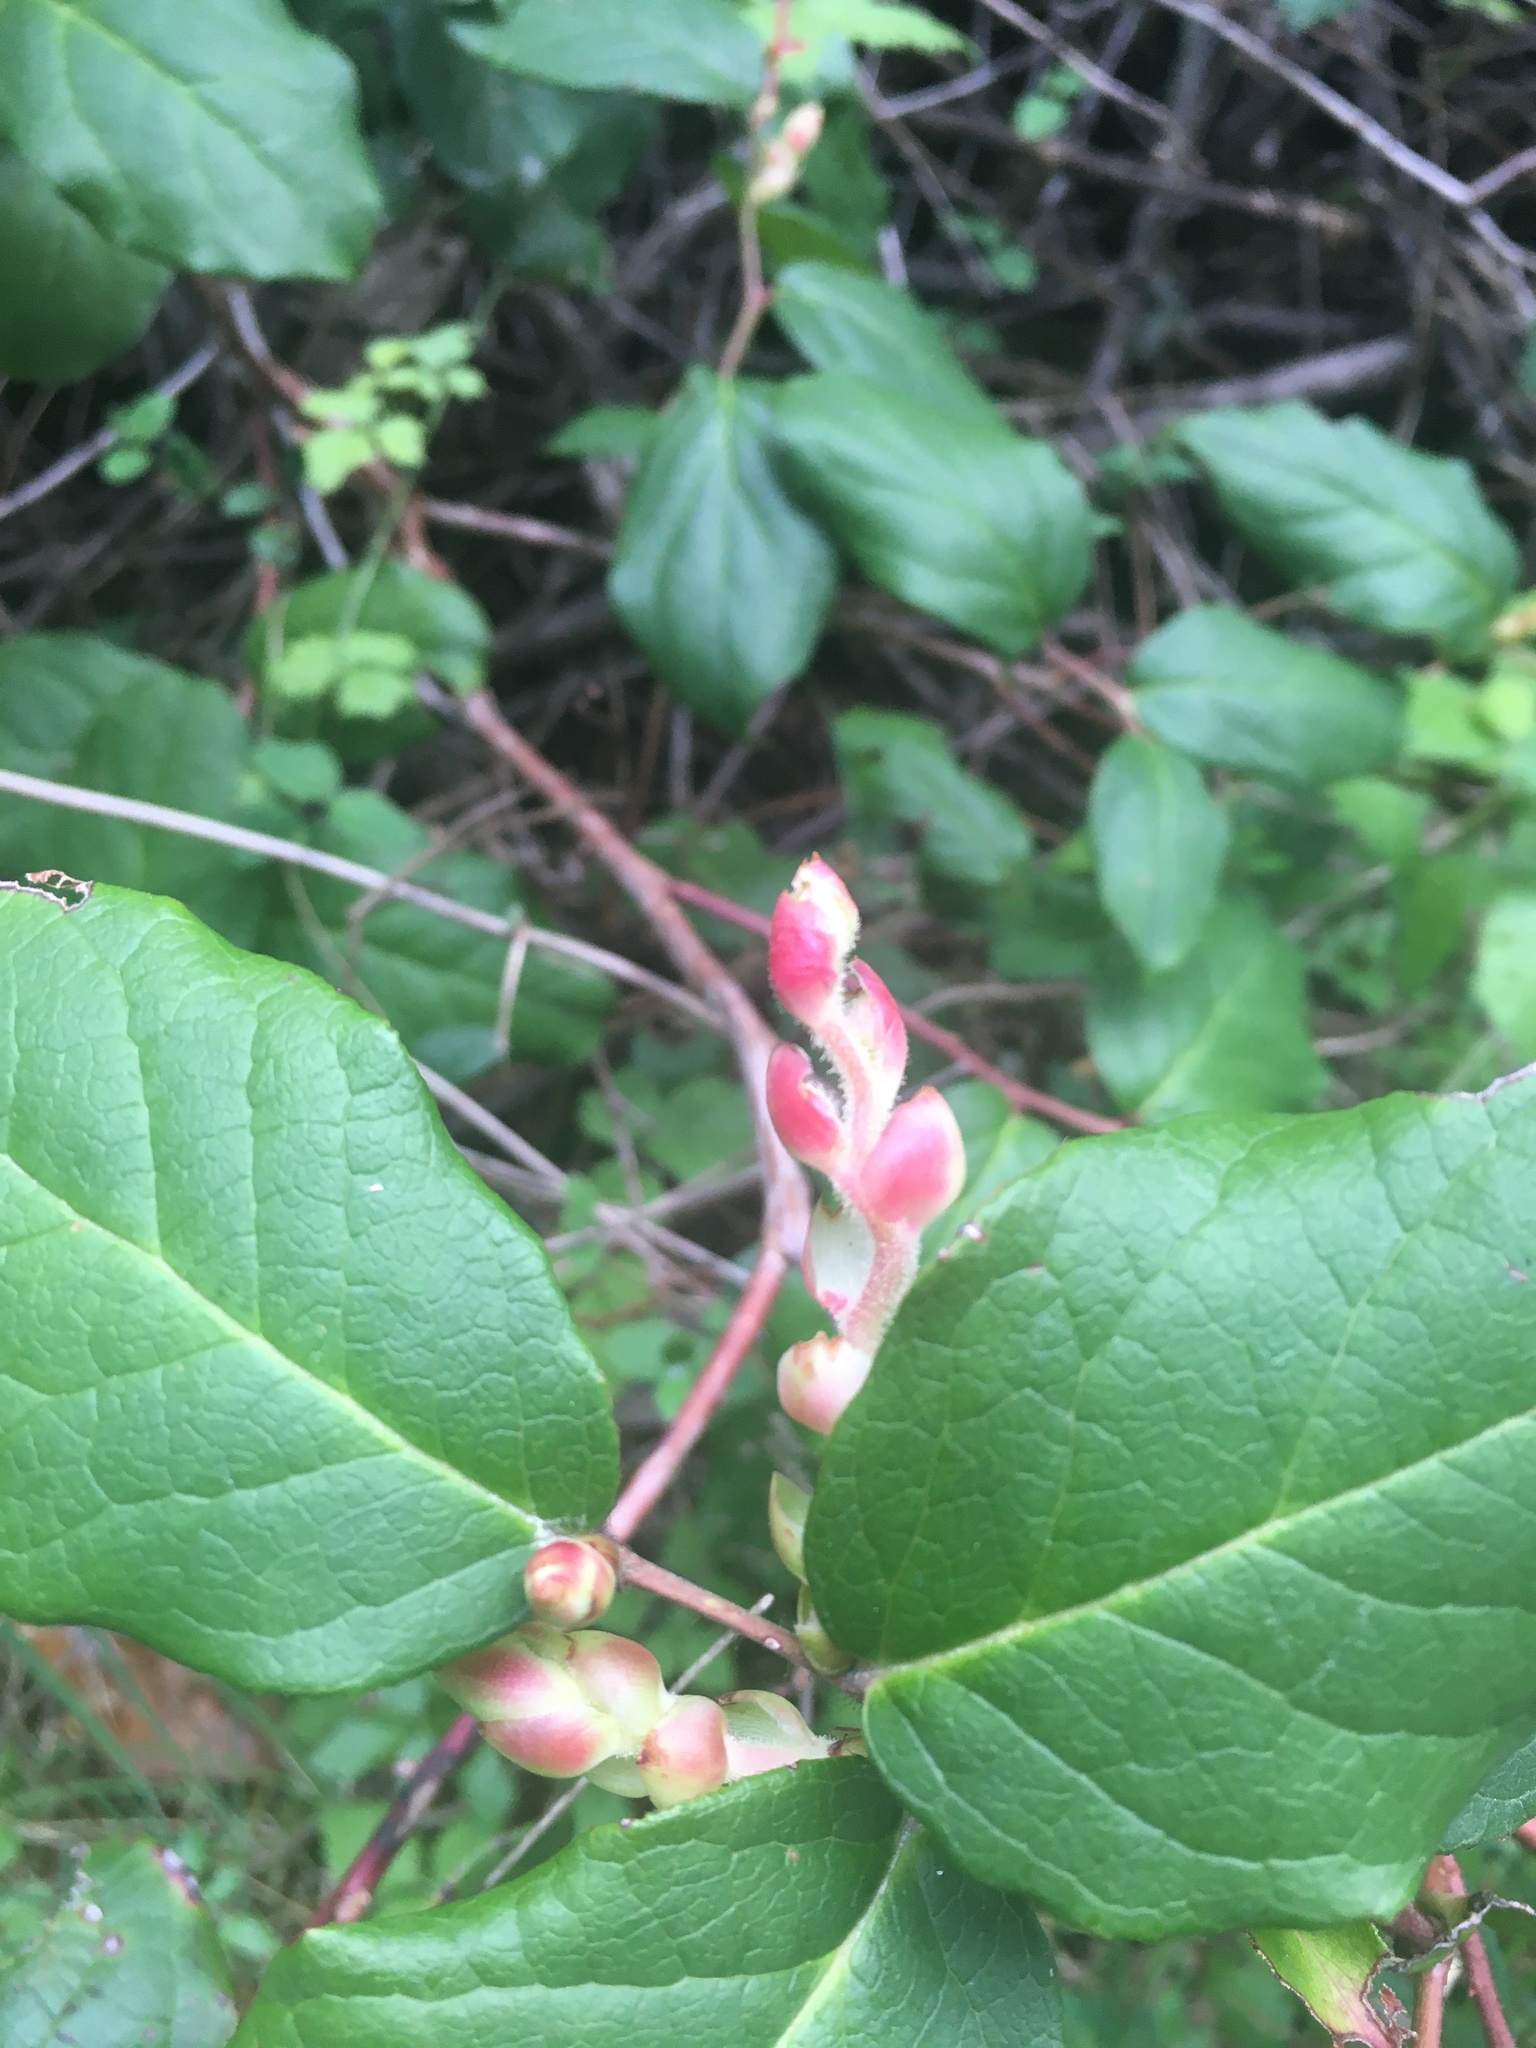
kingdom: Plantae
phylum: Tracheophyta
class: Magnoliopsida
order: Ericales
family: Ericaceae
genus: Gaultheria
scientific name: Gaultheria shallon
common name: Shallon
